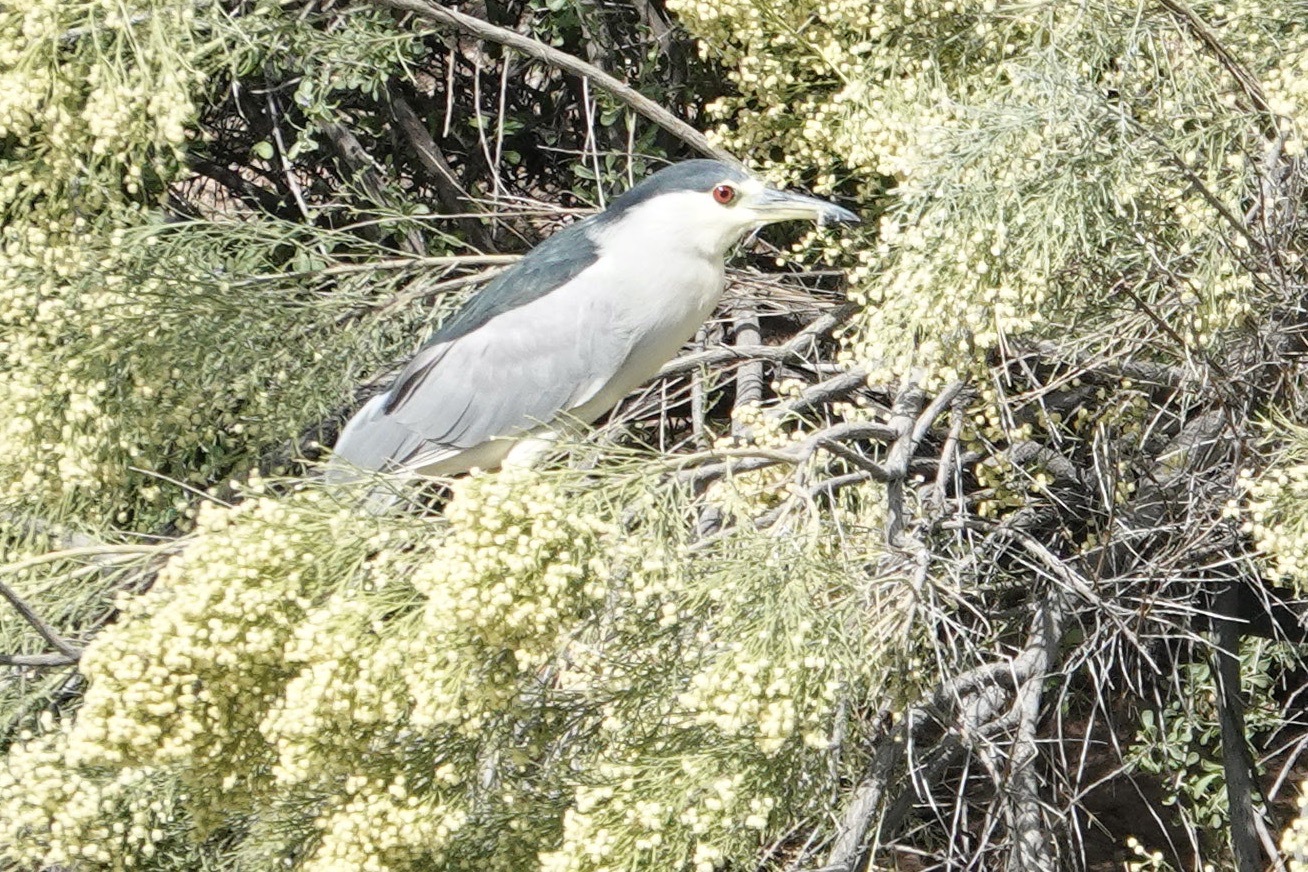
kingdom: Animalia
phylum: Chordata
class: Aves
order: Pelecaniformes
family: Ardeidae
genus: Nycticorax
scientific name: Nycticorax nycticorax
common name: Black-crowned night heron
